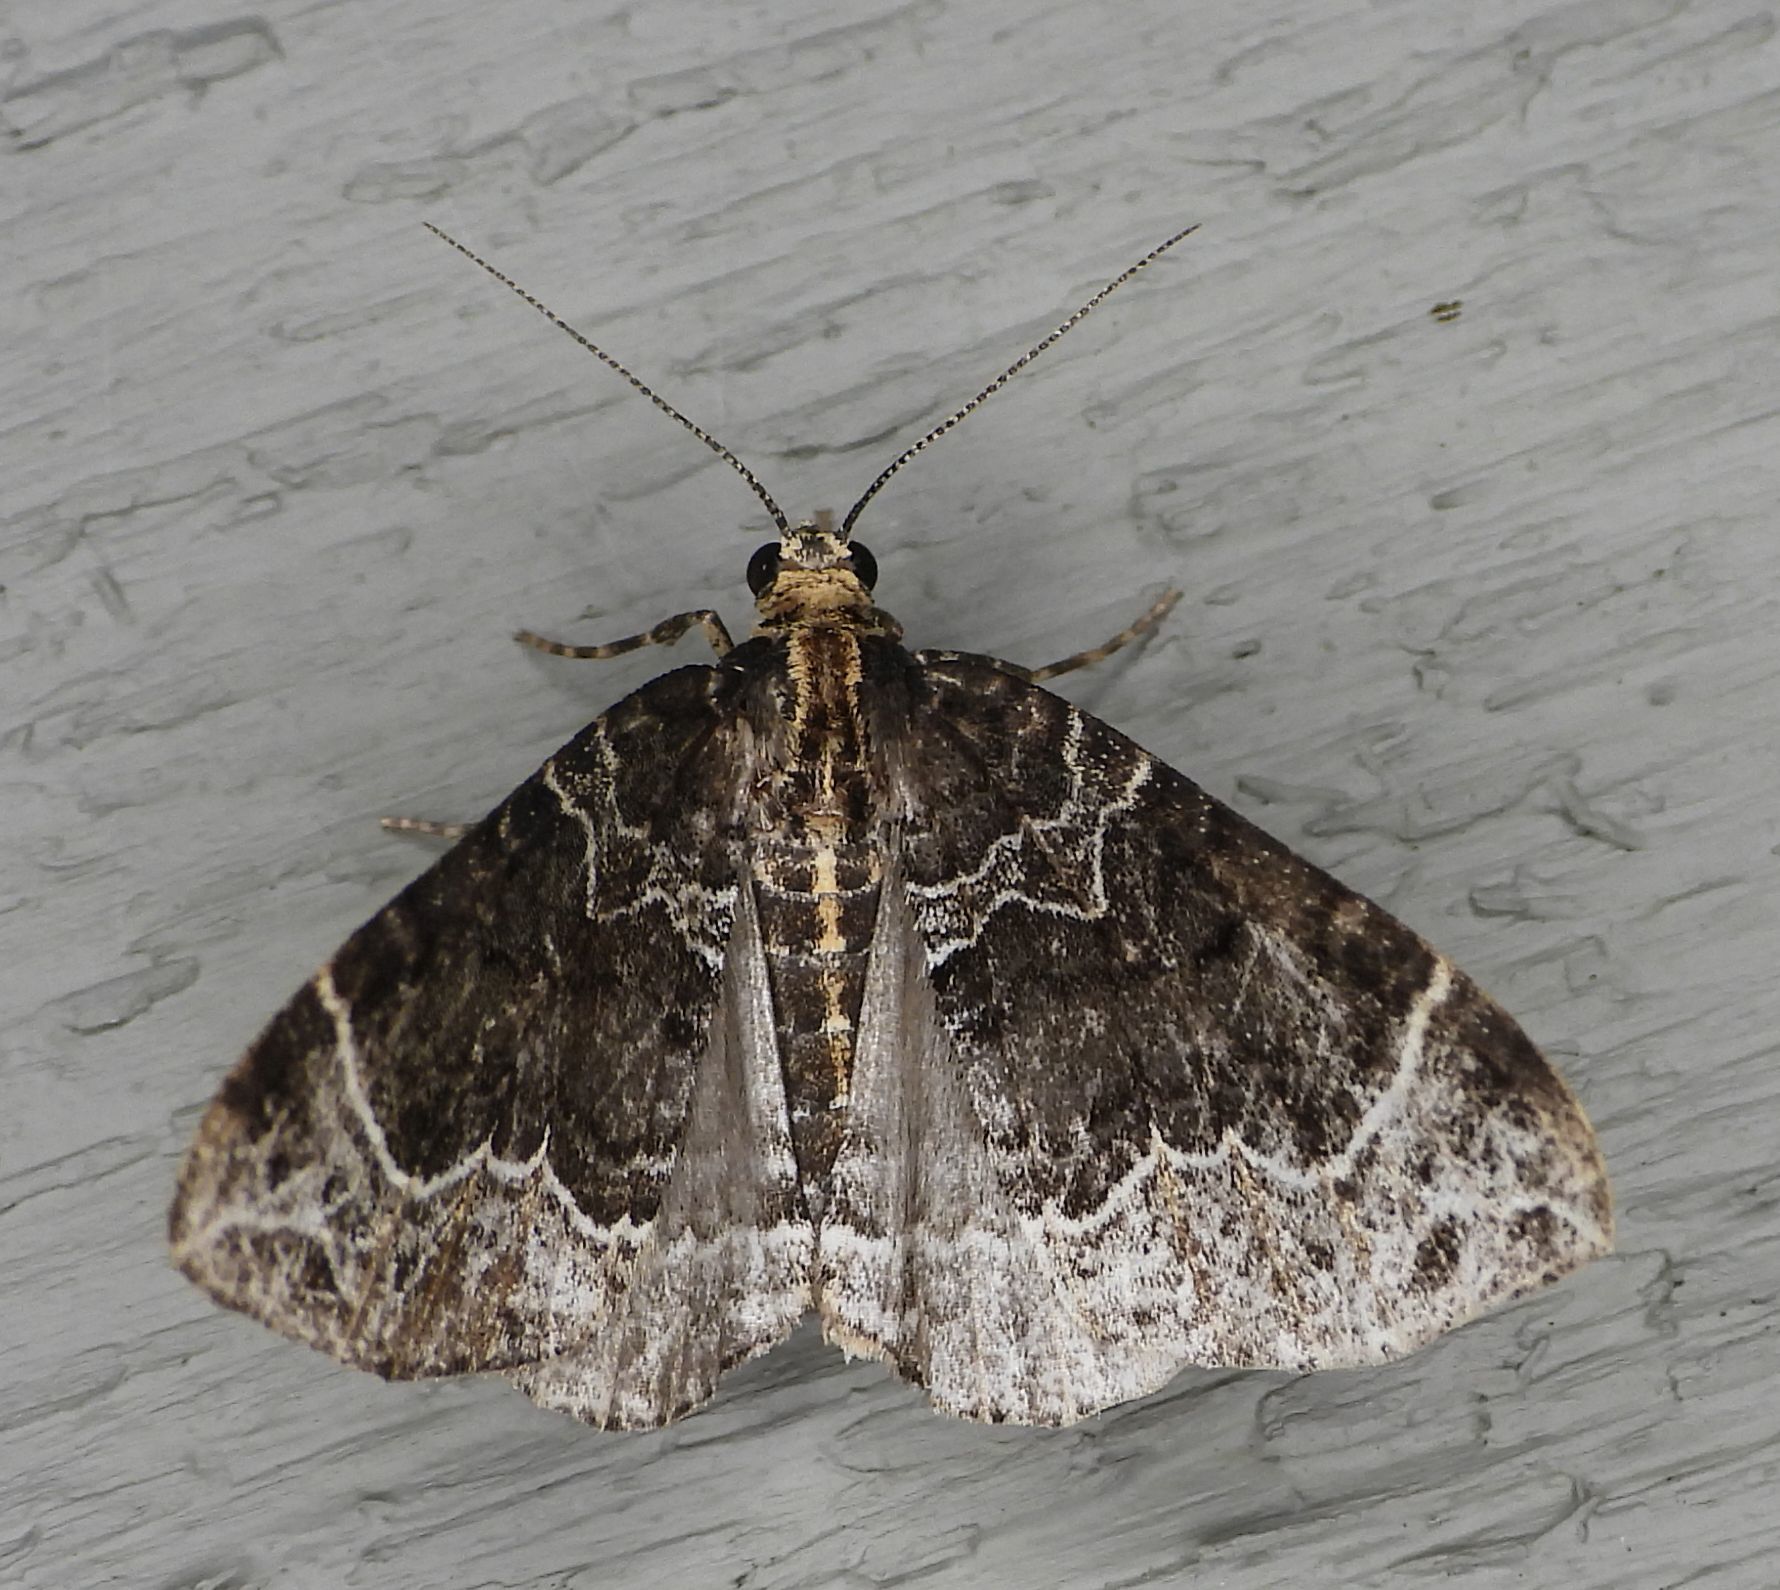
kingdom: Animalia
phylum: Arthropoda
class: Insecta
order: Lepidoptera
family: Geometridae
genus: Ecliptopera
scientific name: Ecliptopera silaceata
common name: Small phoenix
